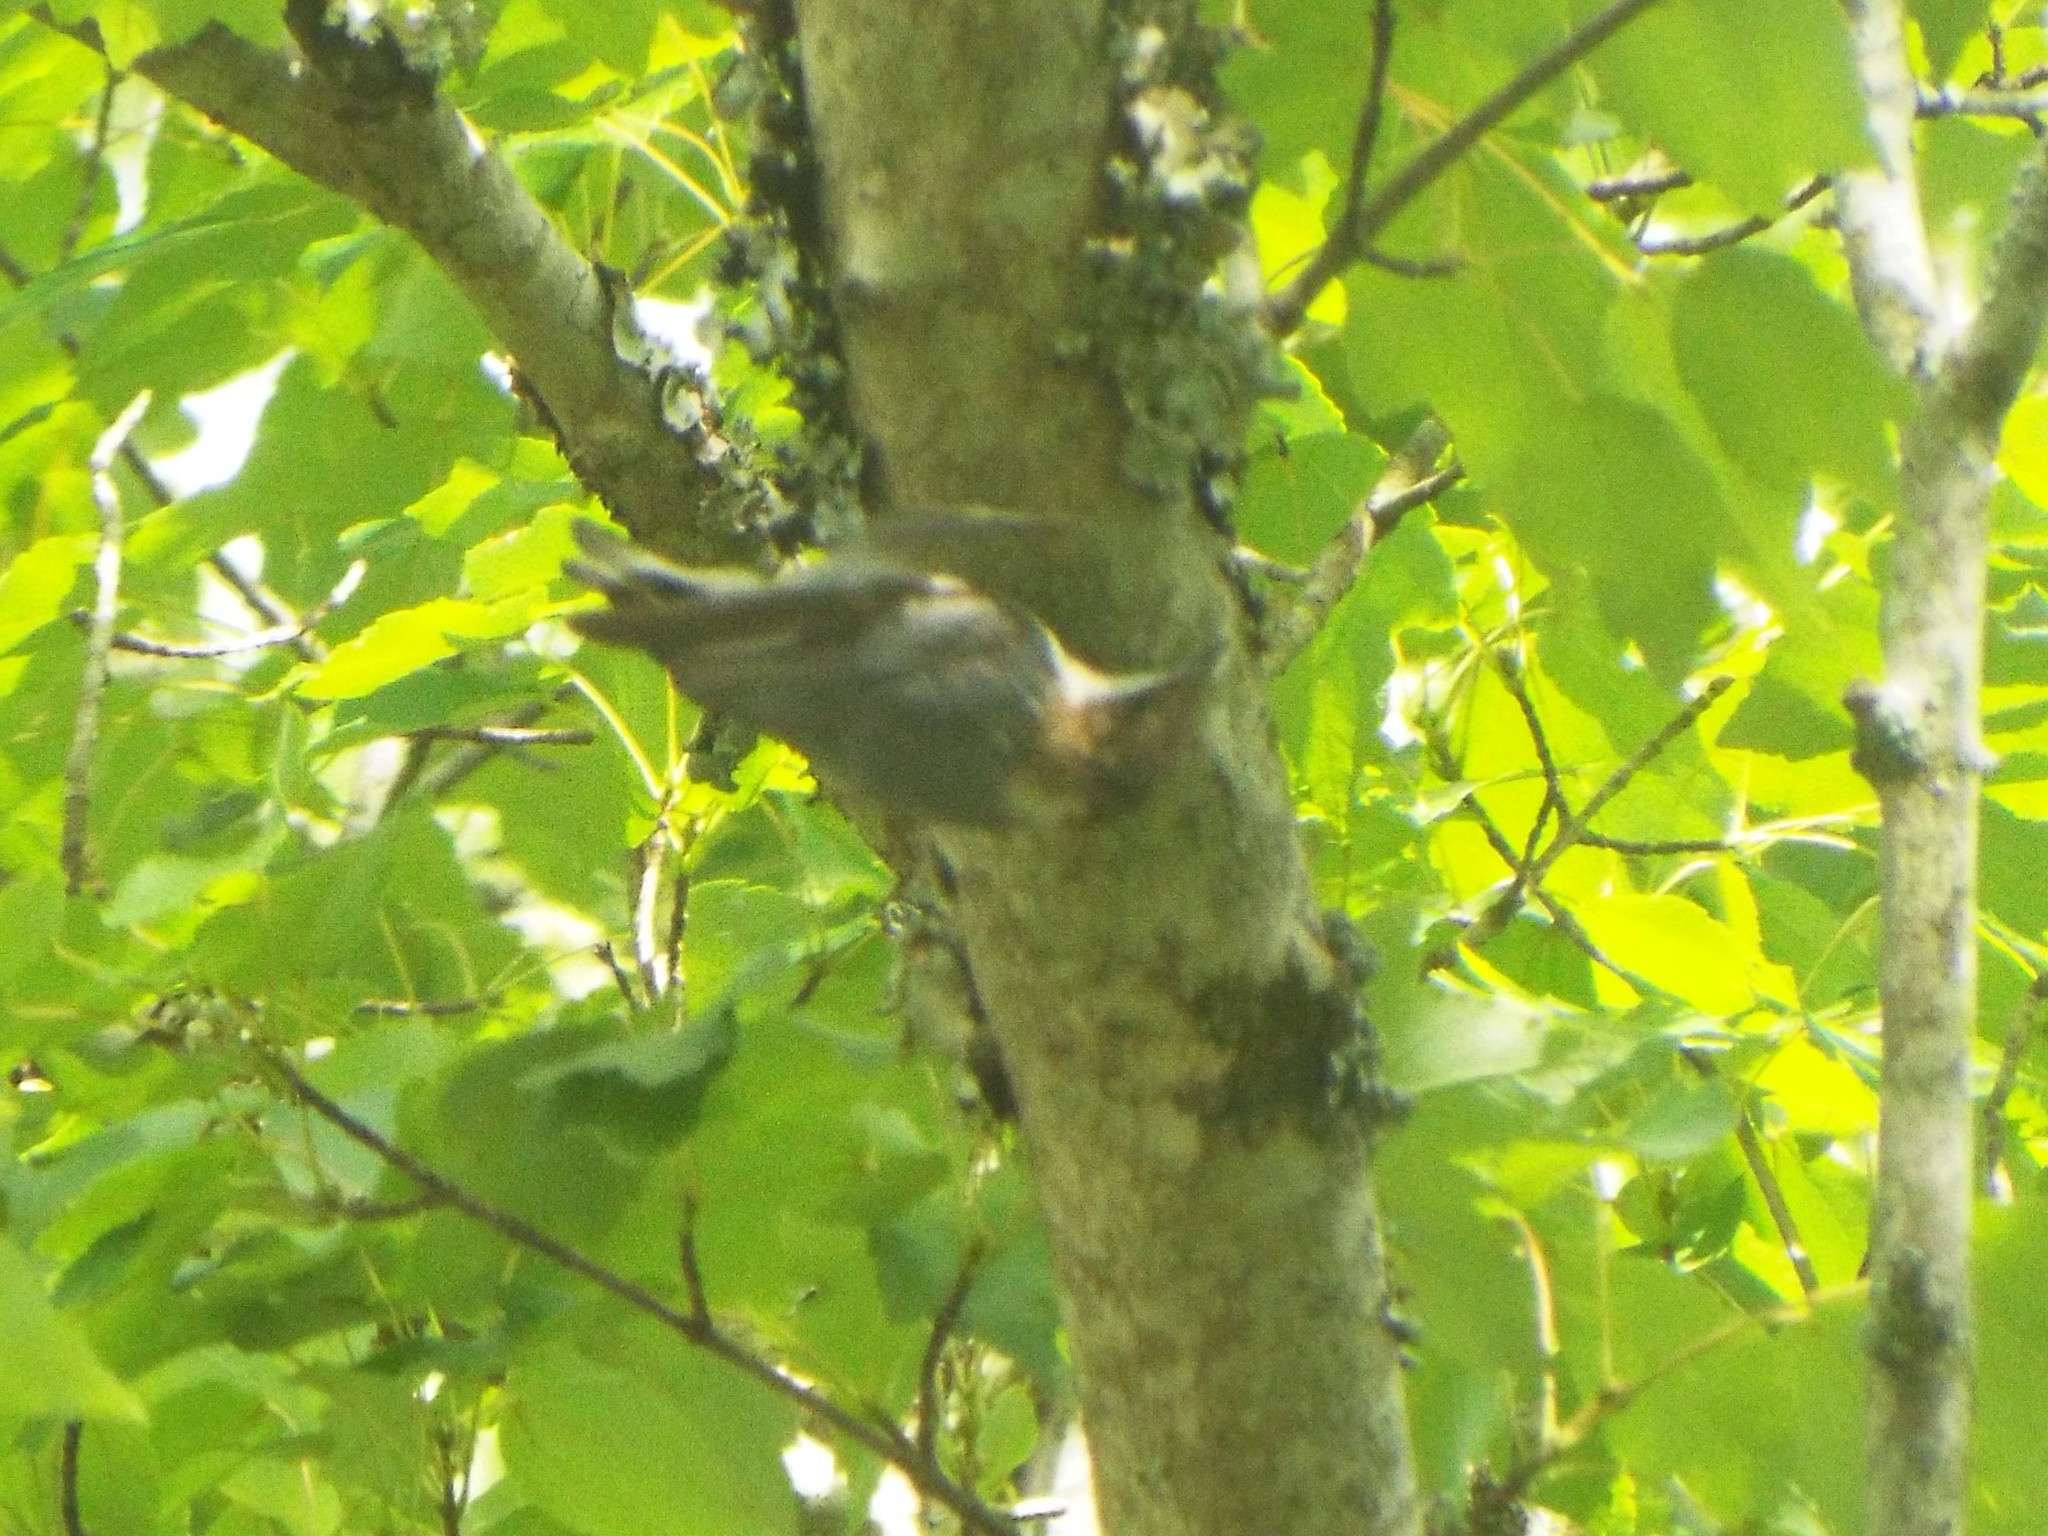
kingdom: Animalia
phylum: Chordata
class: Aves
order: Passeriformes
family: Sittidae
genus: Sitta
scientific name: Sitta pusilla
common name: Brown-headed nuthatch
